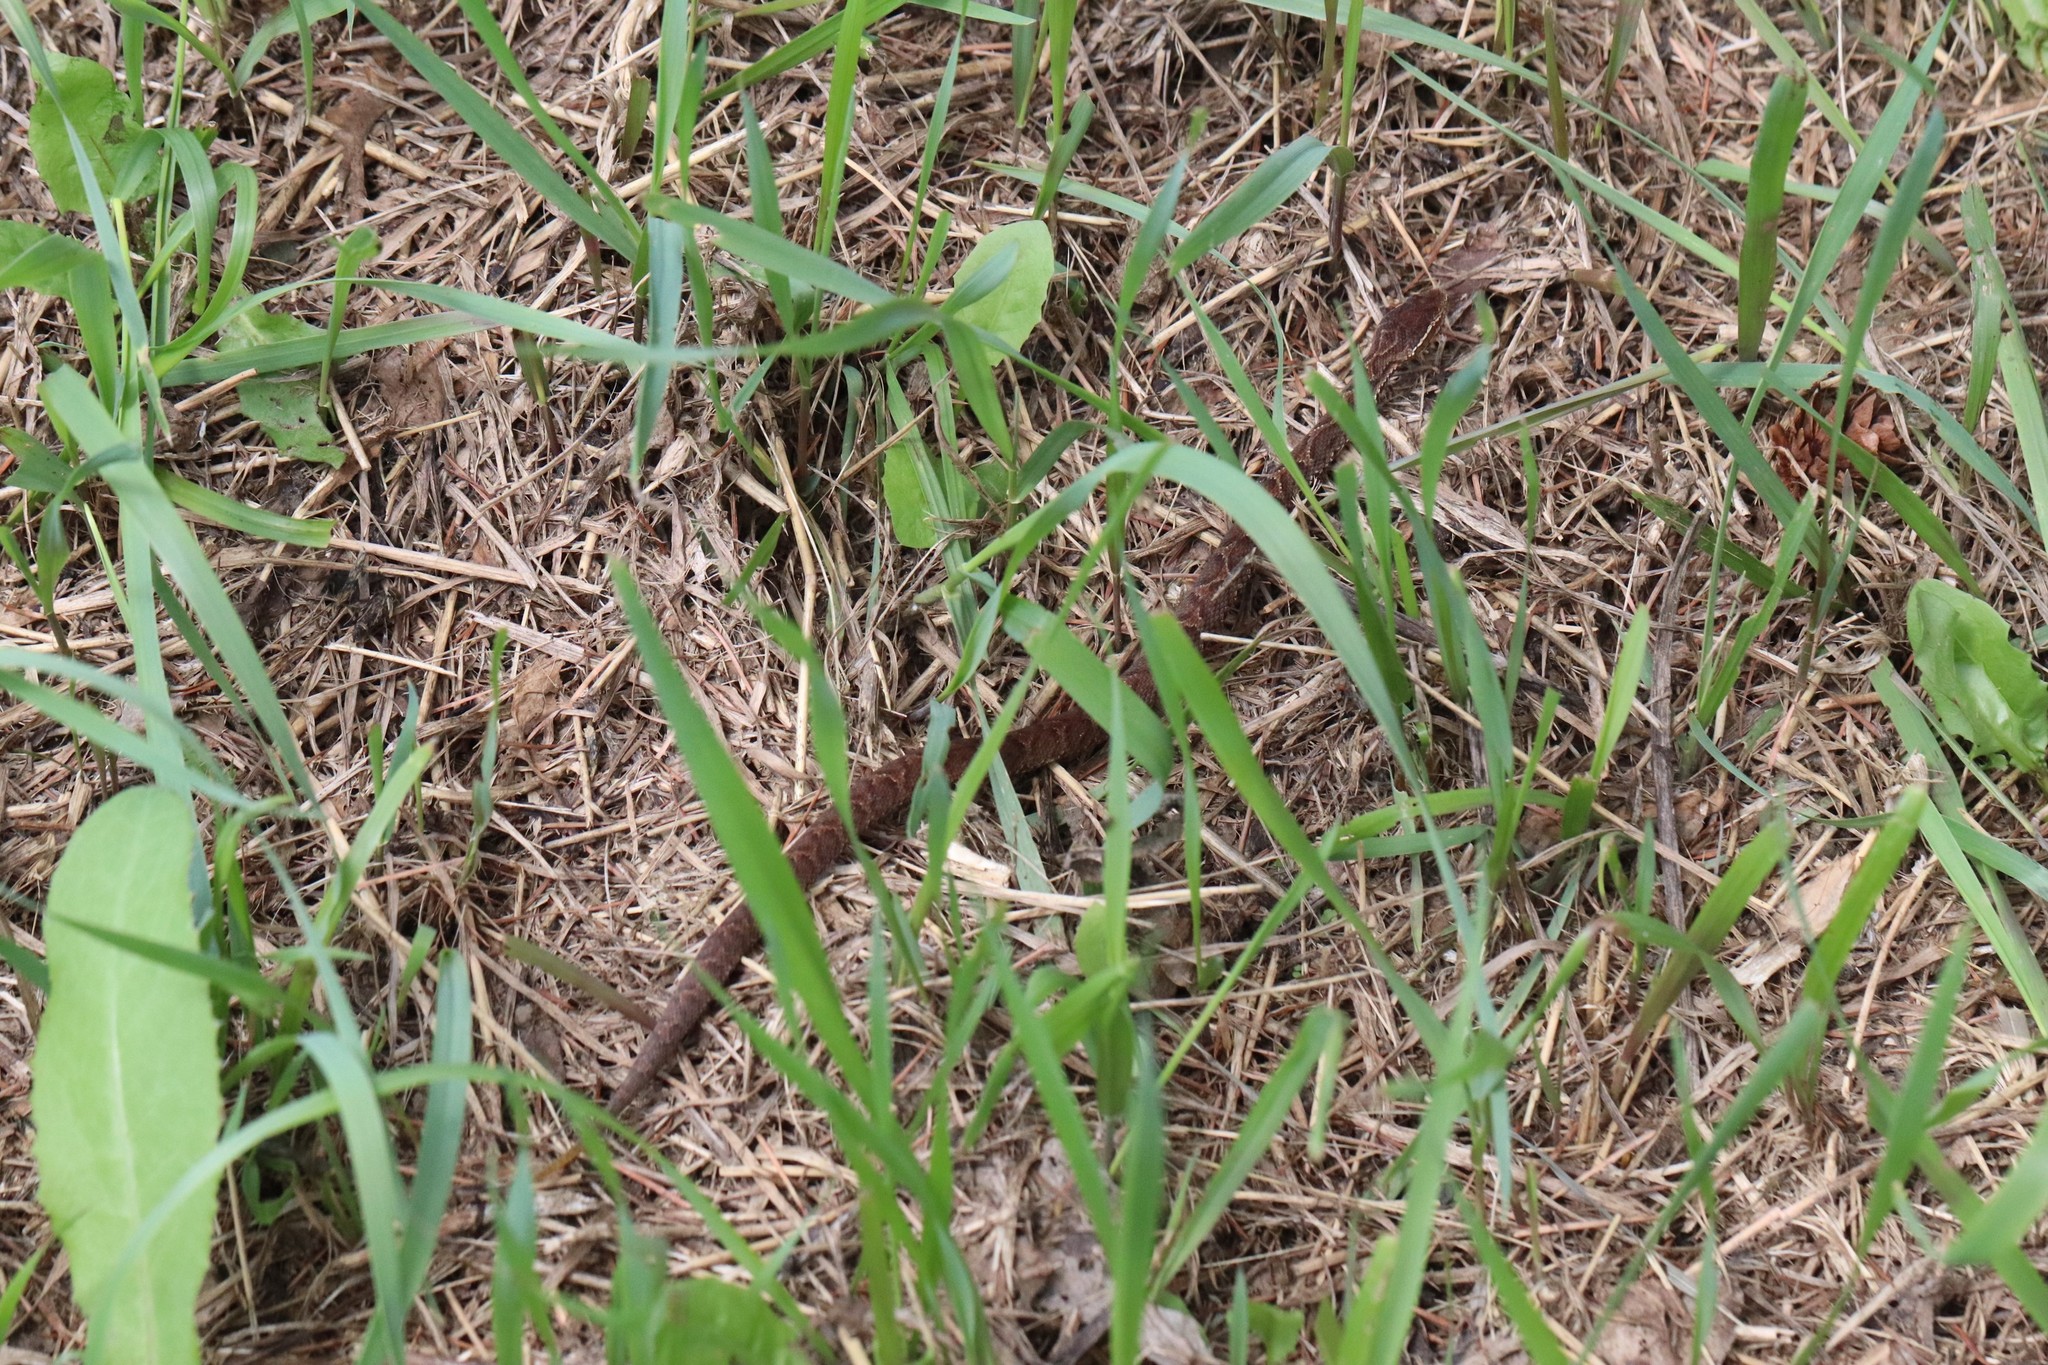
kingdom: Animalia
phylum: Chordata
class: Squamata
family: Viperidae
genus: Gloydius
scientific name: Gloydius ussuriensis
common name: Ussuri mamushi
